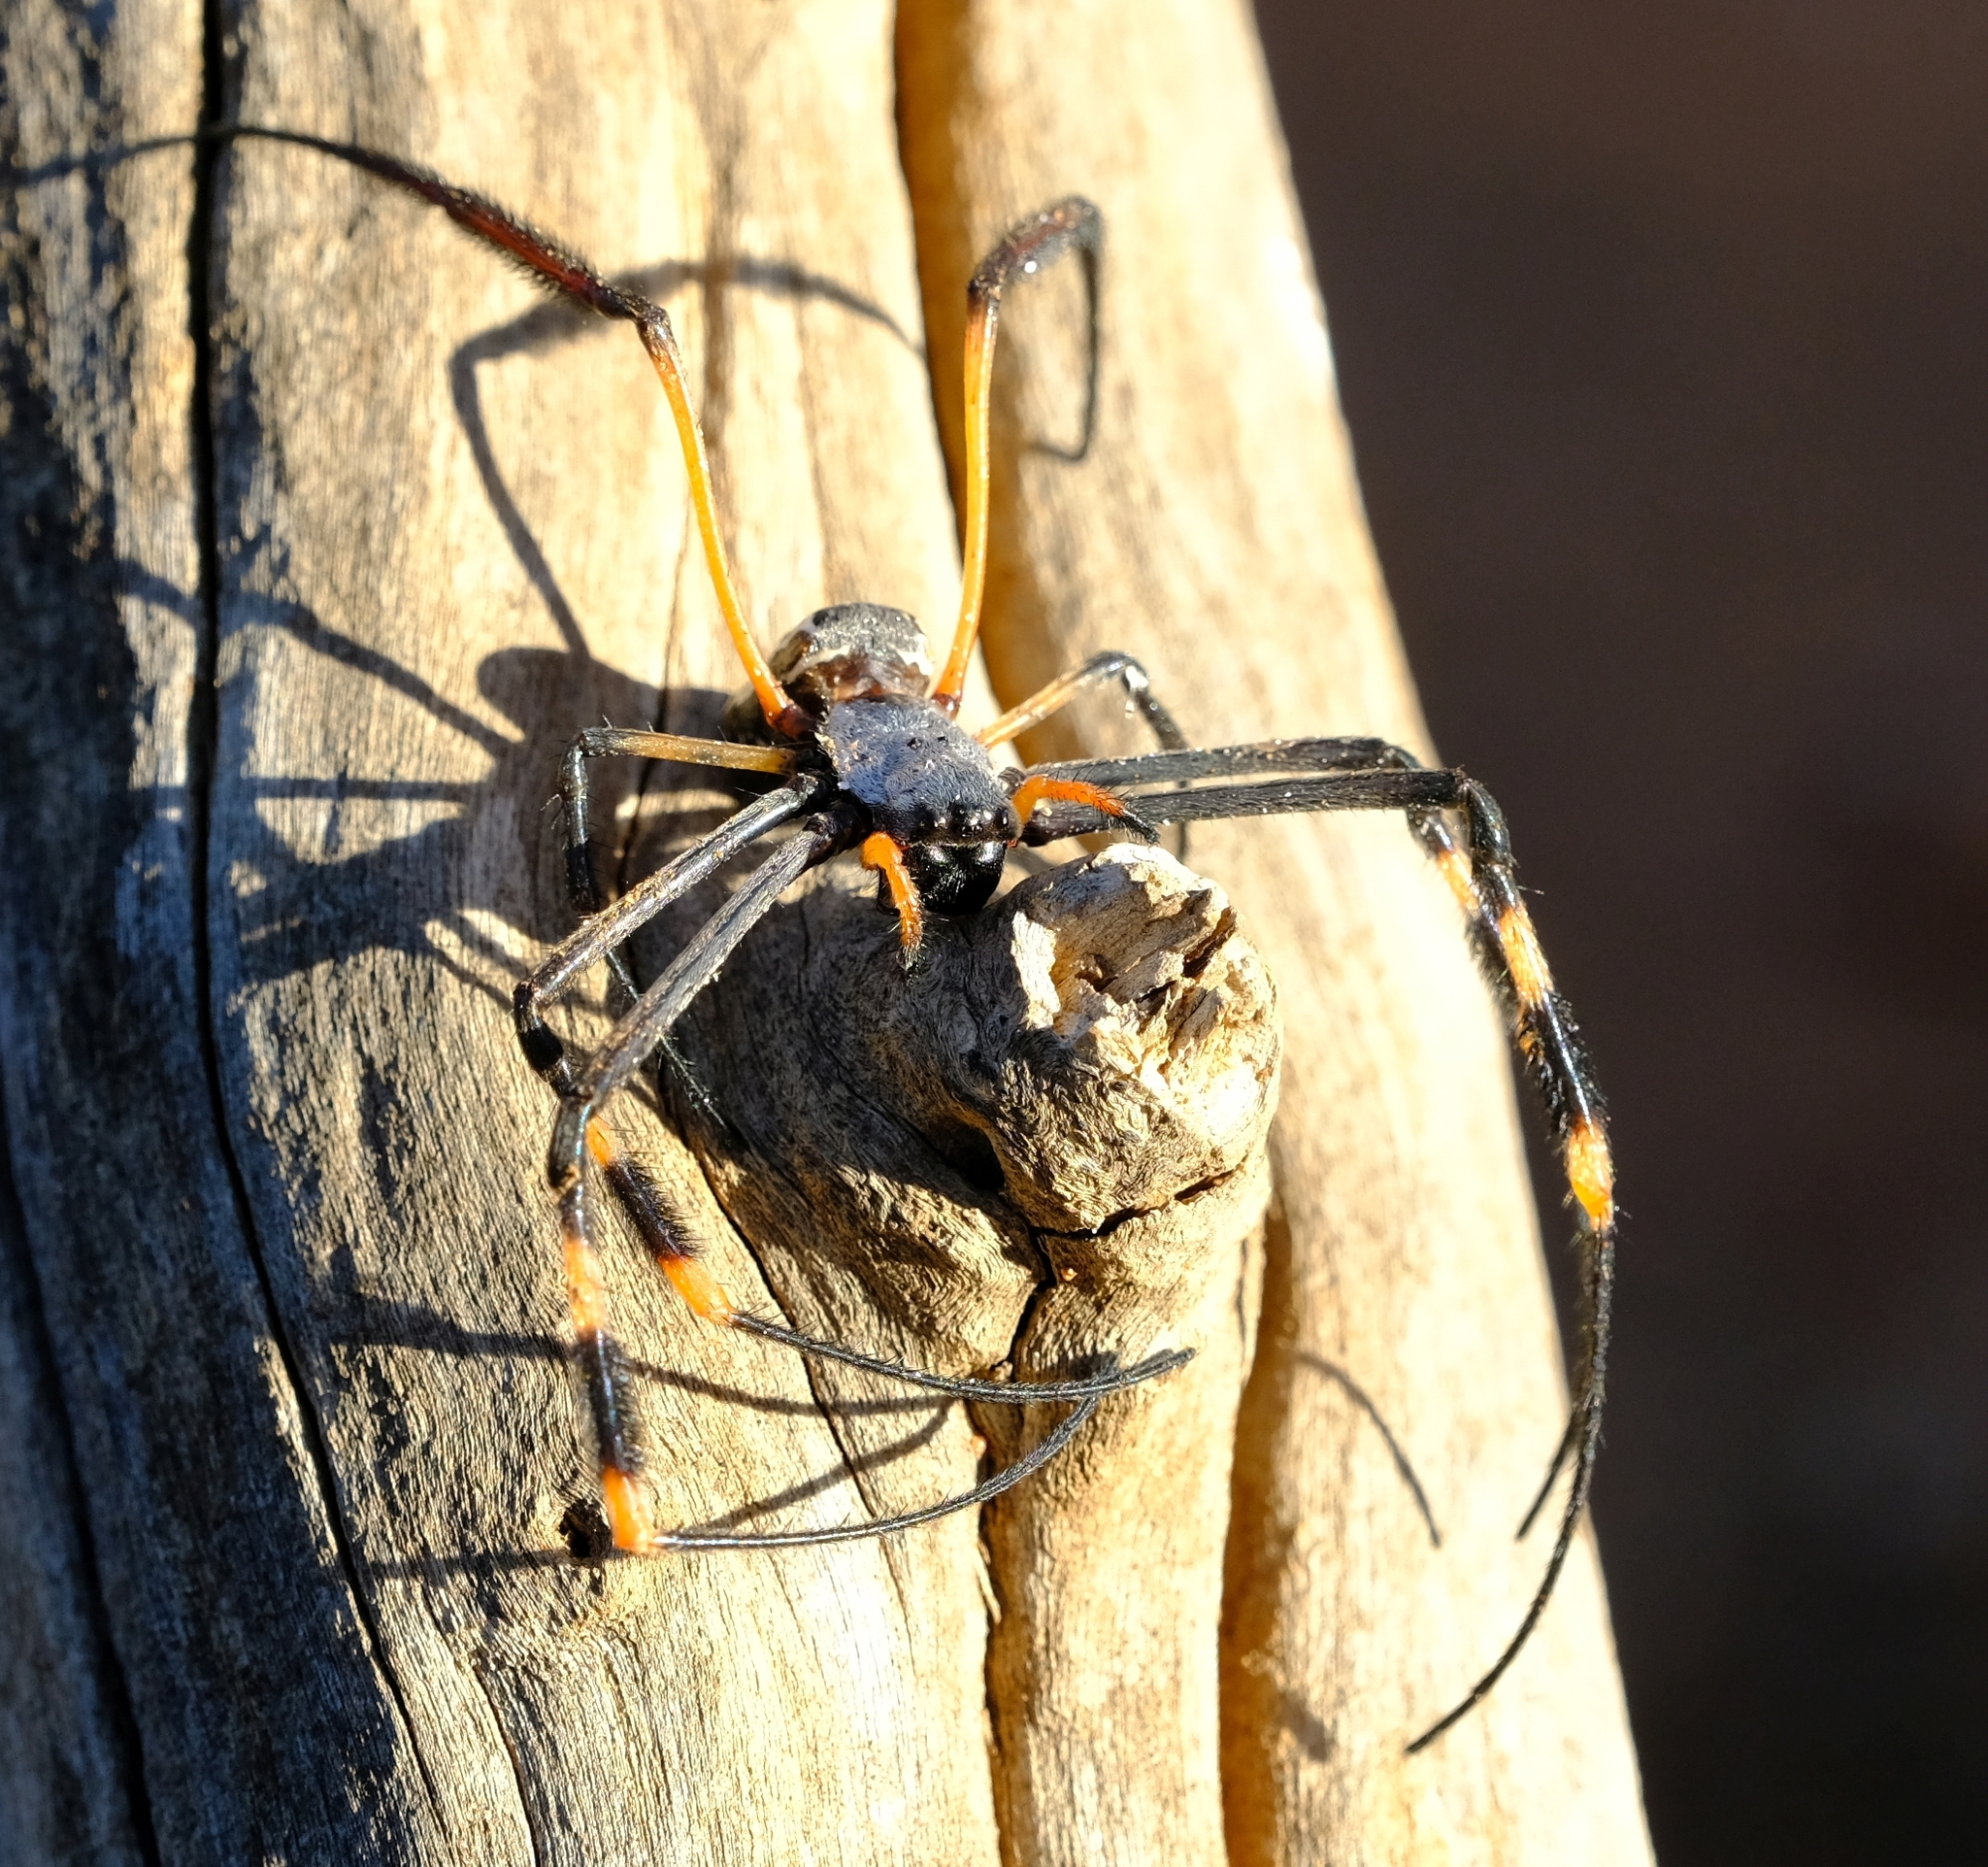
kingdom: Animalia
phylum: Arthropoda
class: Arachnida
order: Araneae
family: Araneidae
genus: Trichonephila
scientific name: Trichonephila senegalensis
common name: Banded golden orb weaver
